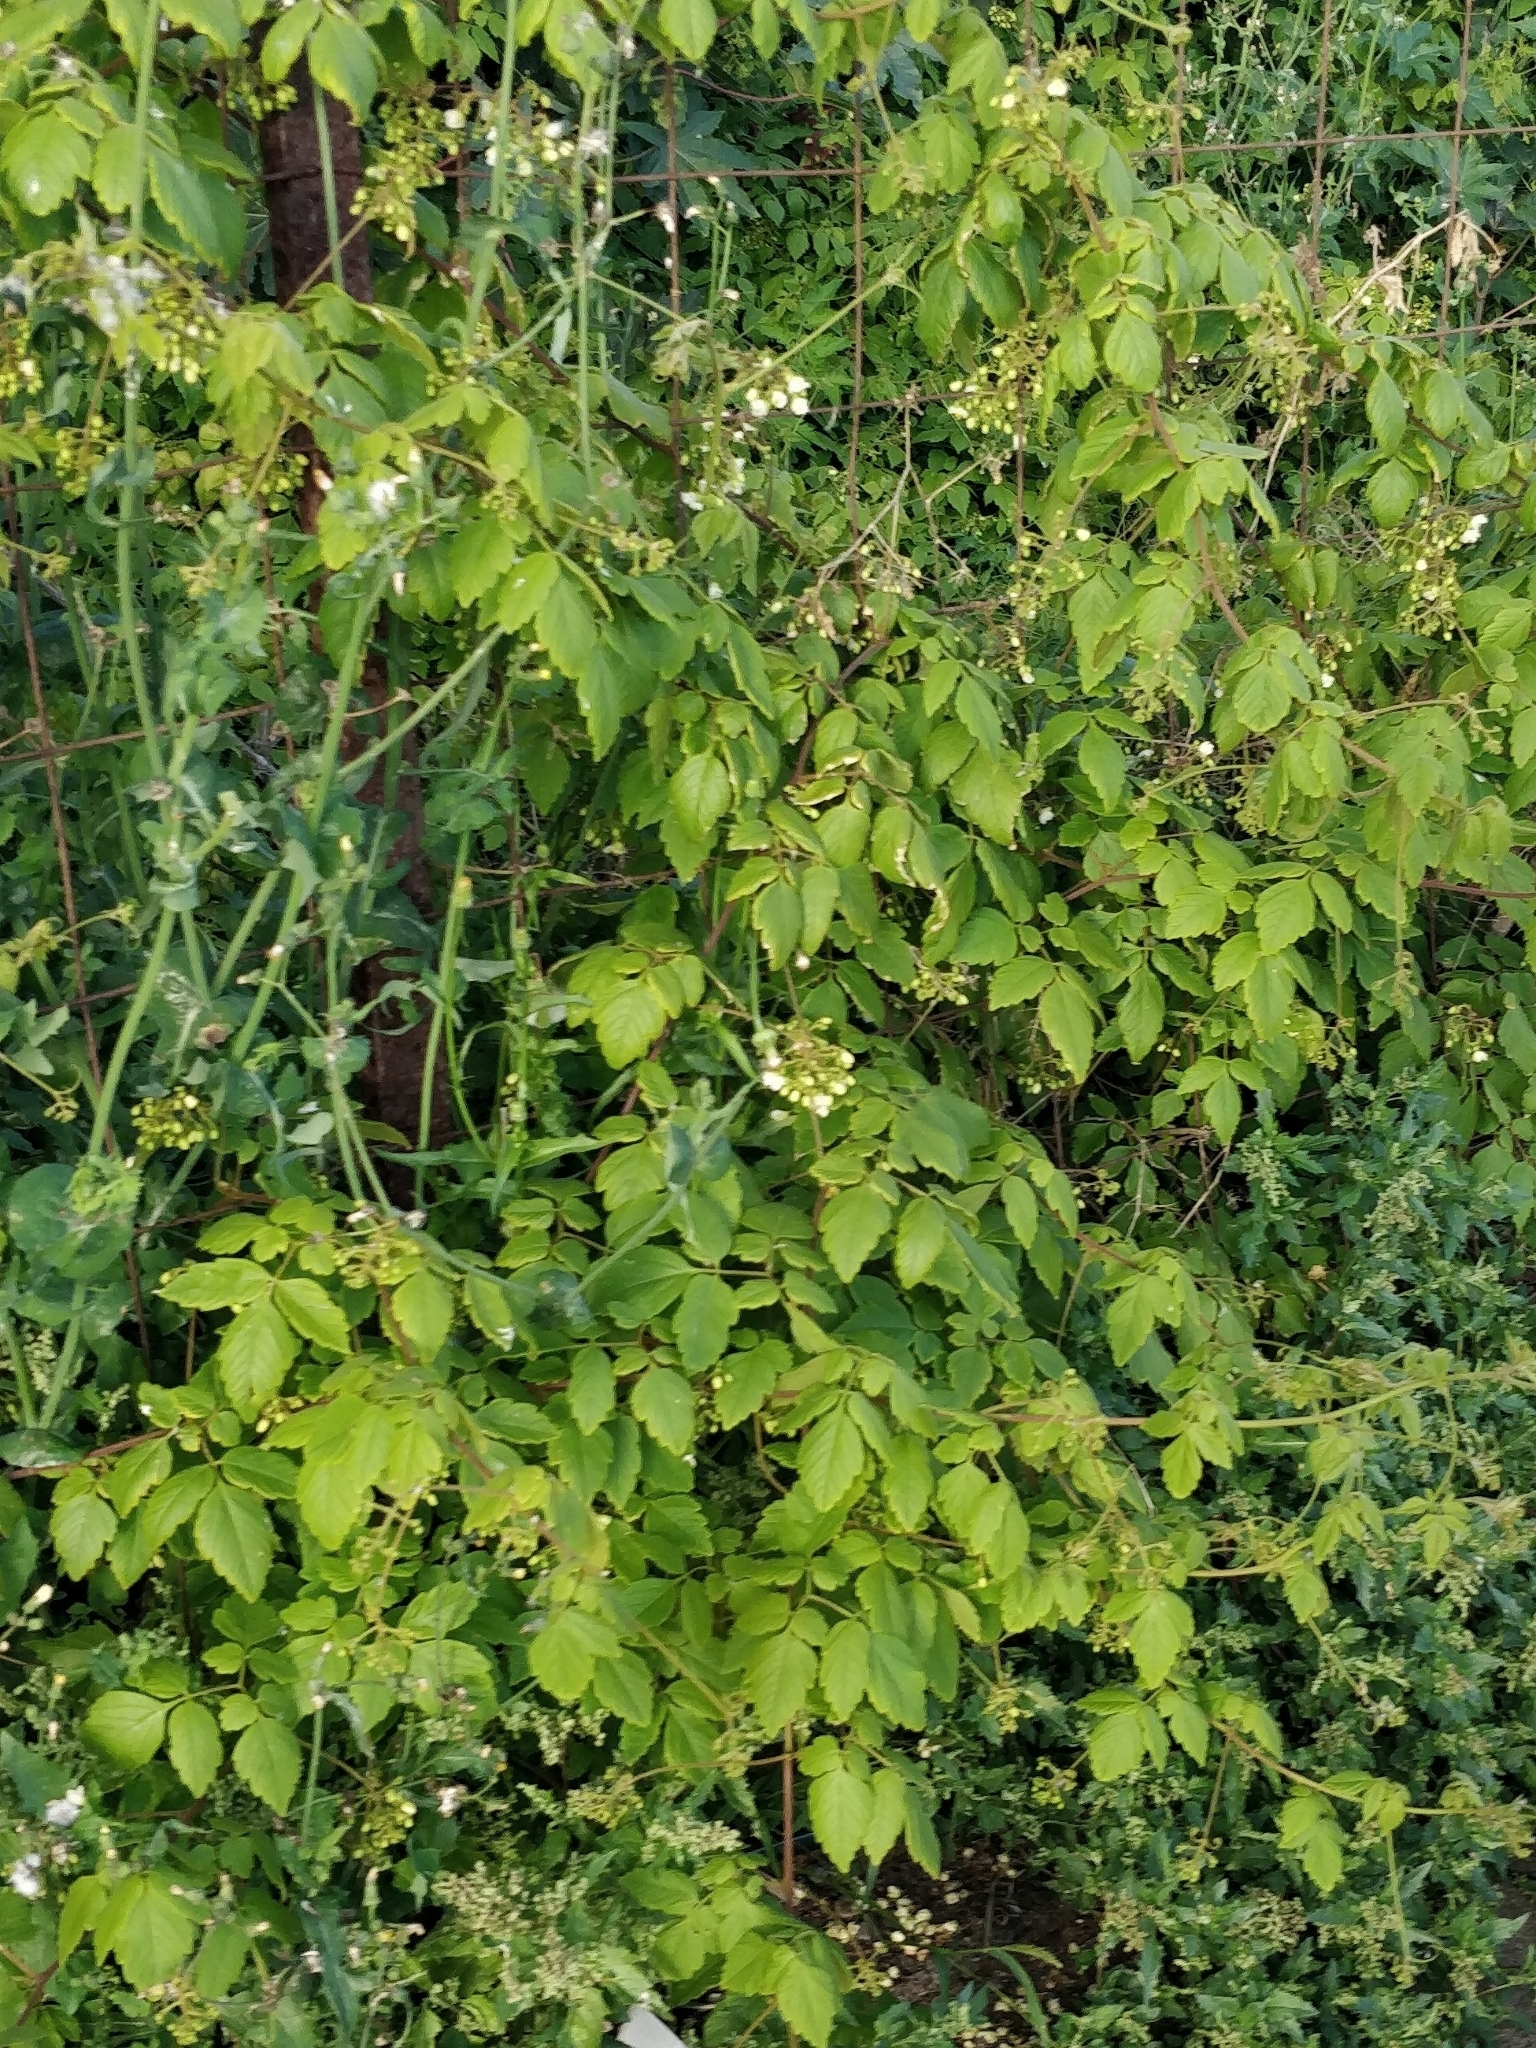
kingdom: Plantae
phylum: Tracheophyta
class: Magnoliopsida
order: Sapindales
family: Sapindaceae
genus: Cardiospermum
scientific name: Cardiospermum grandiflorum
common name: Balloon vine
